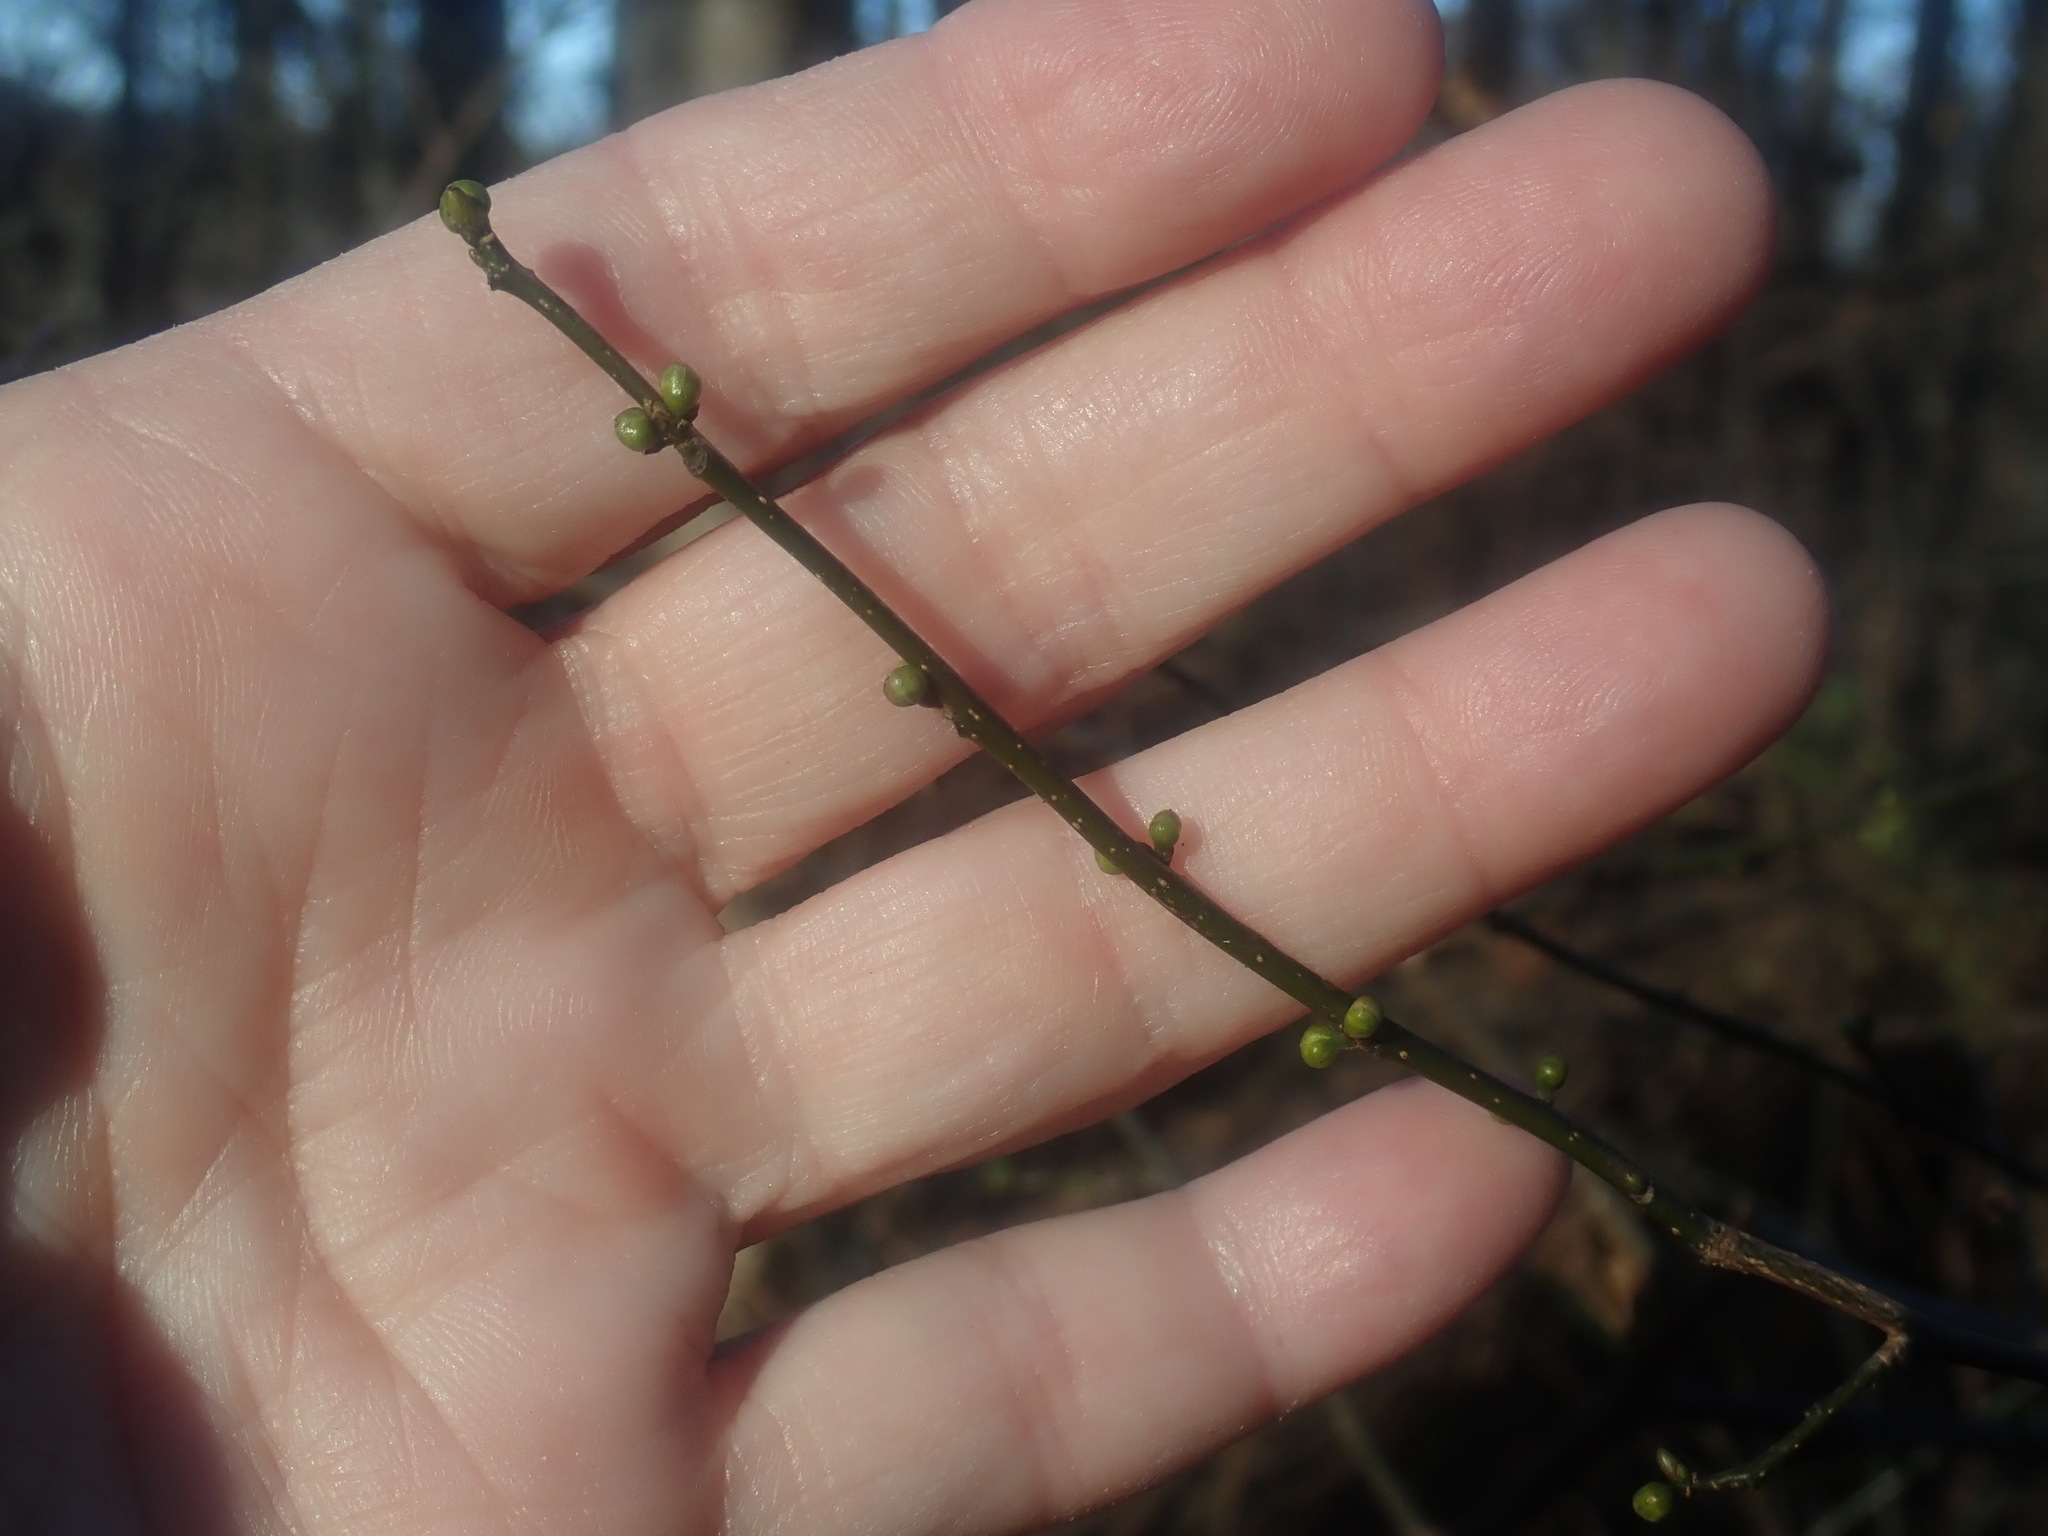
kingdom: Plantae
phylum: Tracheophyta
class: Magnoliopsida
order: Laurales
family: Lauraceae
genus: Lindera
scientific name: Lindera benzoin
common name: Spicebush
